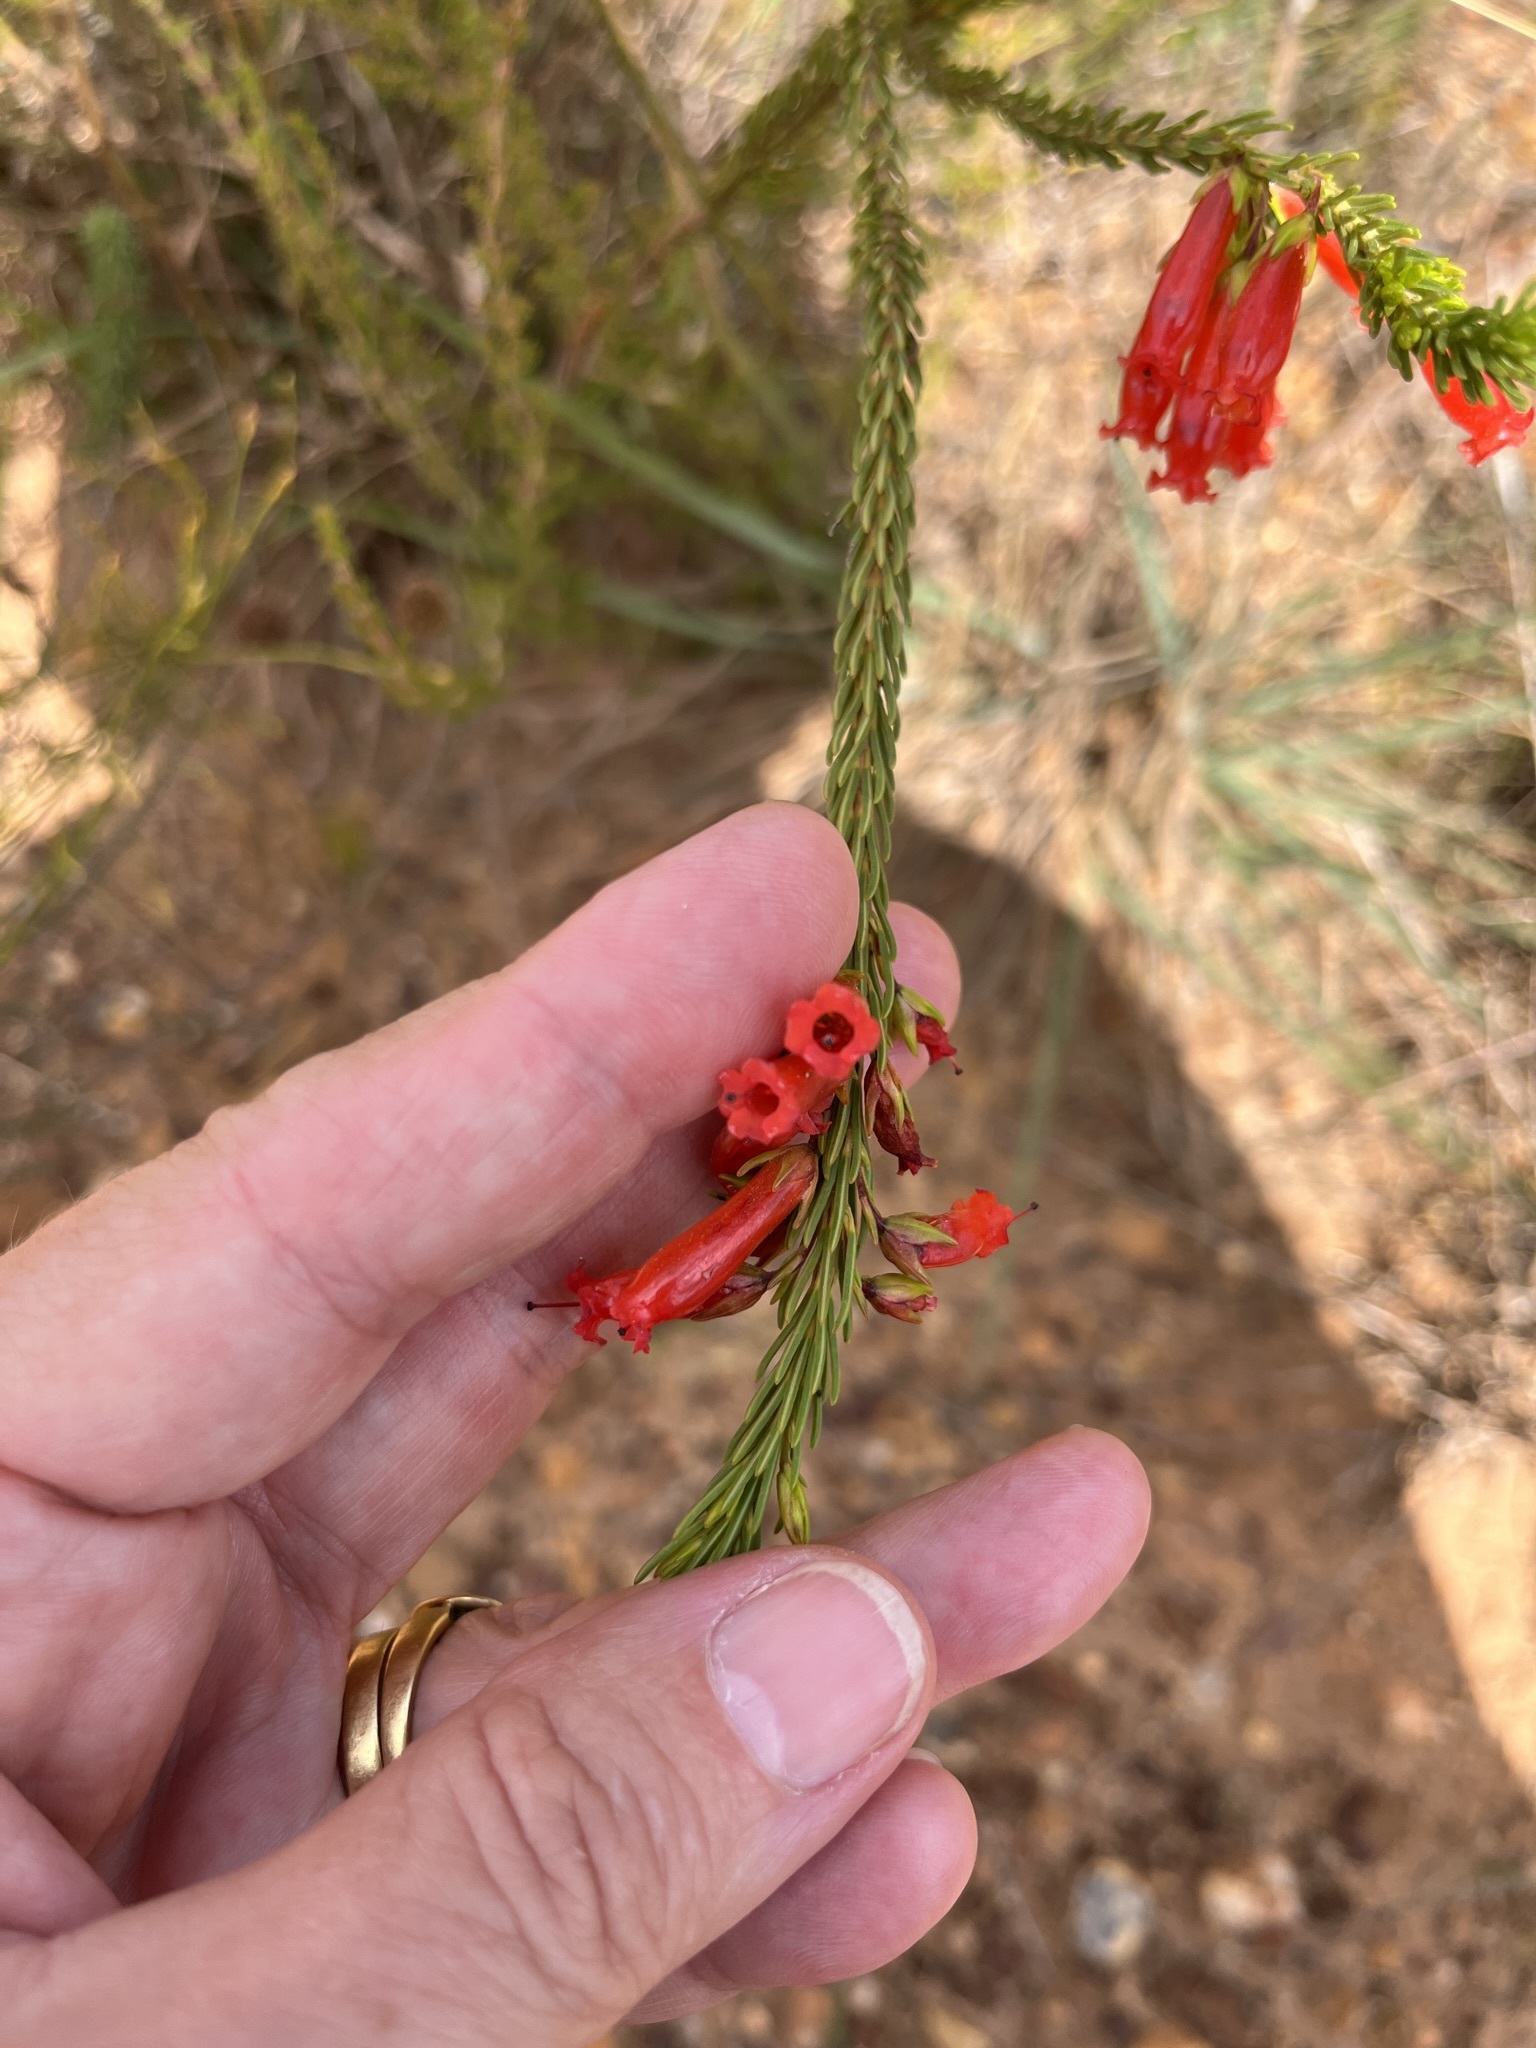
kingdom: Plantae
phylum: Tracheophyta
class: Magnoliopsida
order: Ericales
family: Ericaceae
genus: Erica
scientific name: Erica regia
